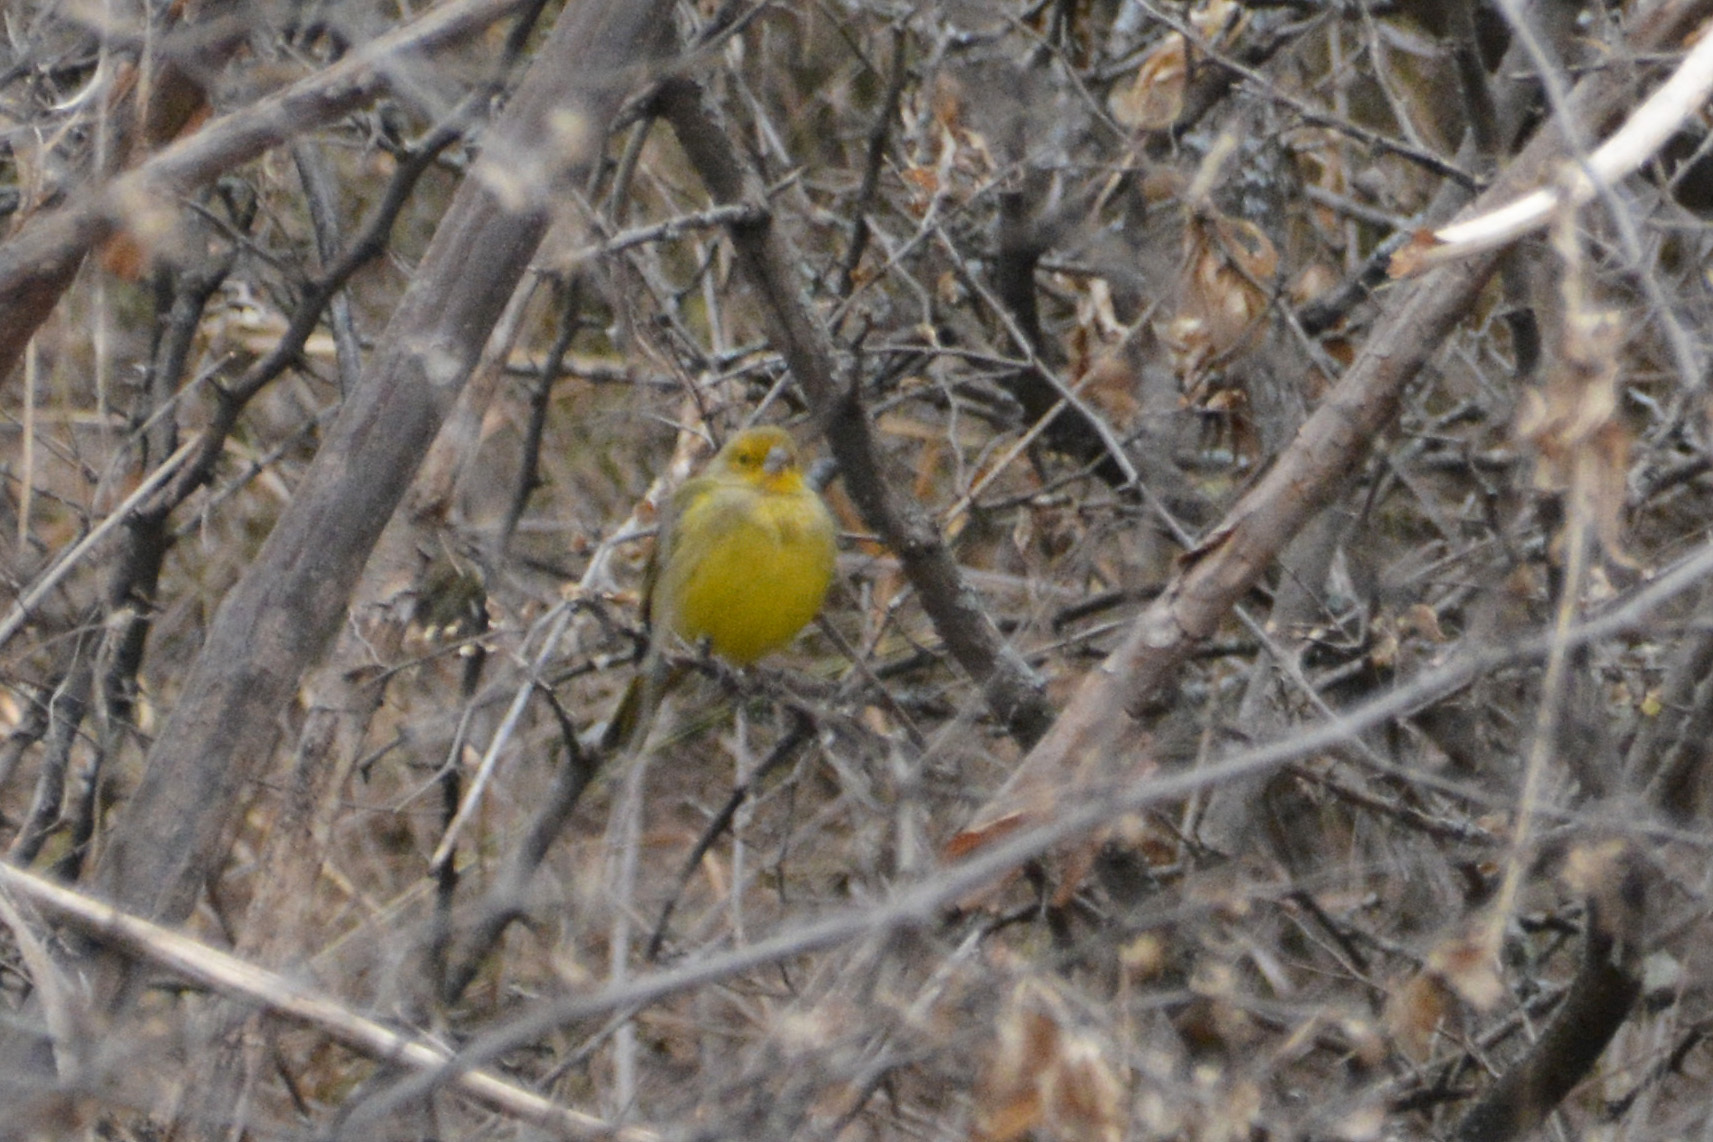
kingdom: Animalia
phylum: Chordata
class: Aves
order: Passeriformes
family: Thraupidae
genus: Sicalis
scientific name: Sicalis flaveola
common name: Saffron finch
